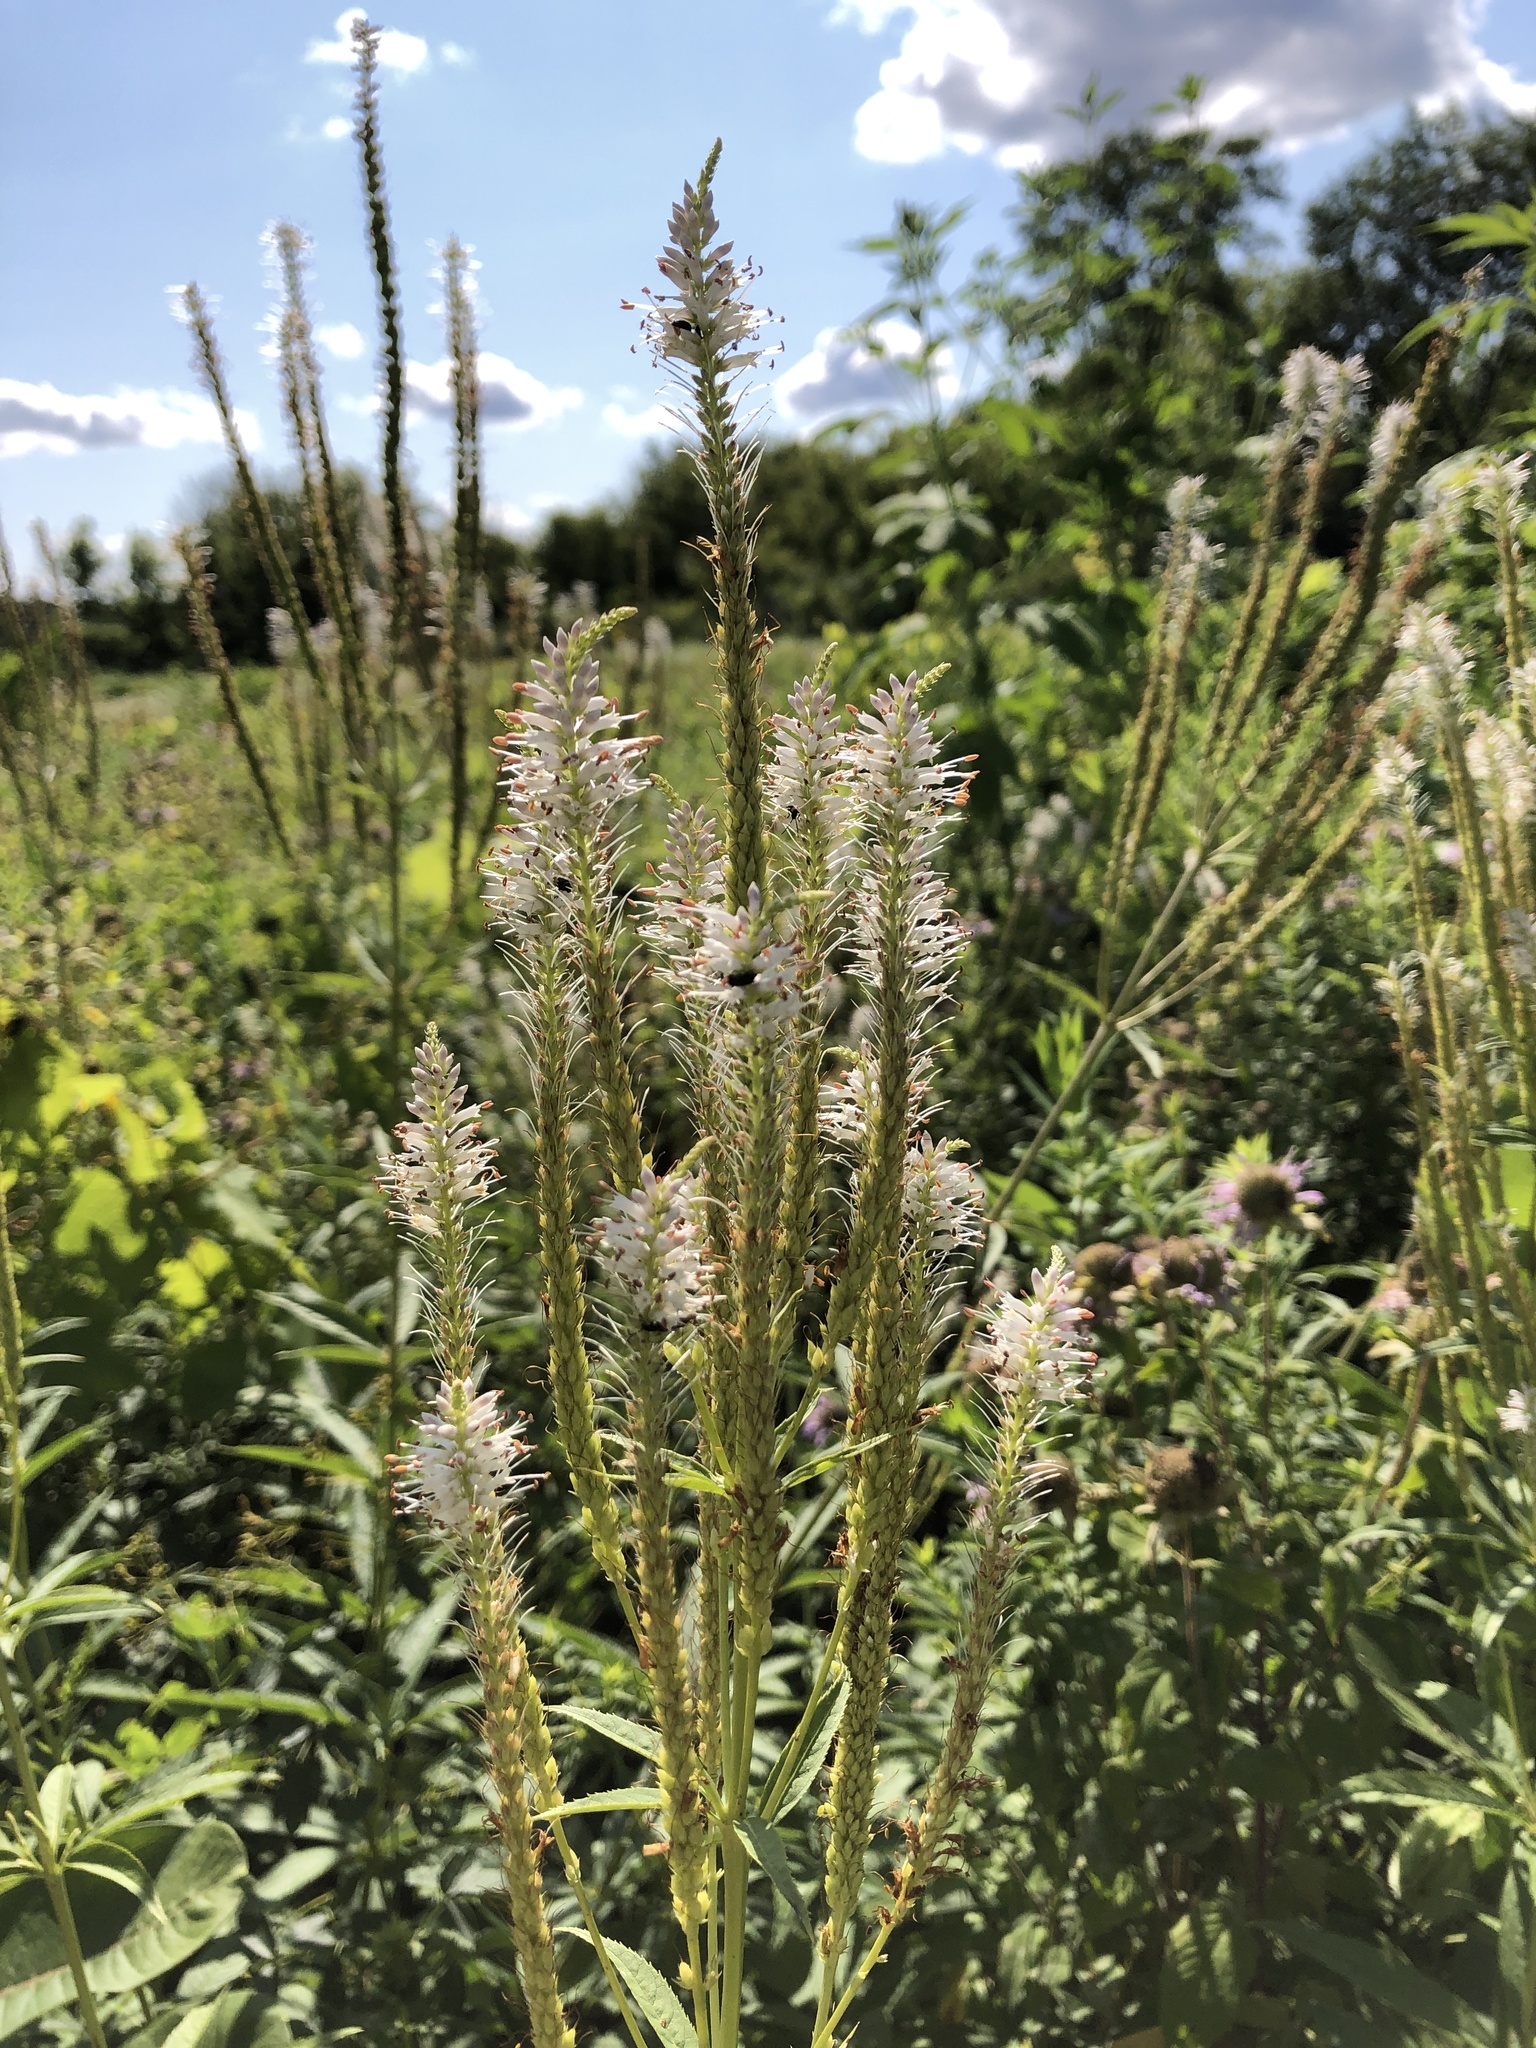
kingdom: Plantae
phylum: Tracheophyta
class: Magnoliopsida
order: Lamiales
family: Plantaginaceae
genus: Veronicastrum
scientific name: Veronicastrum virginicum
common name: Blackroot
